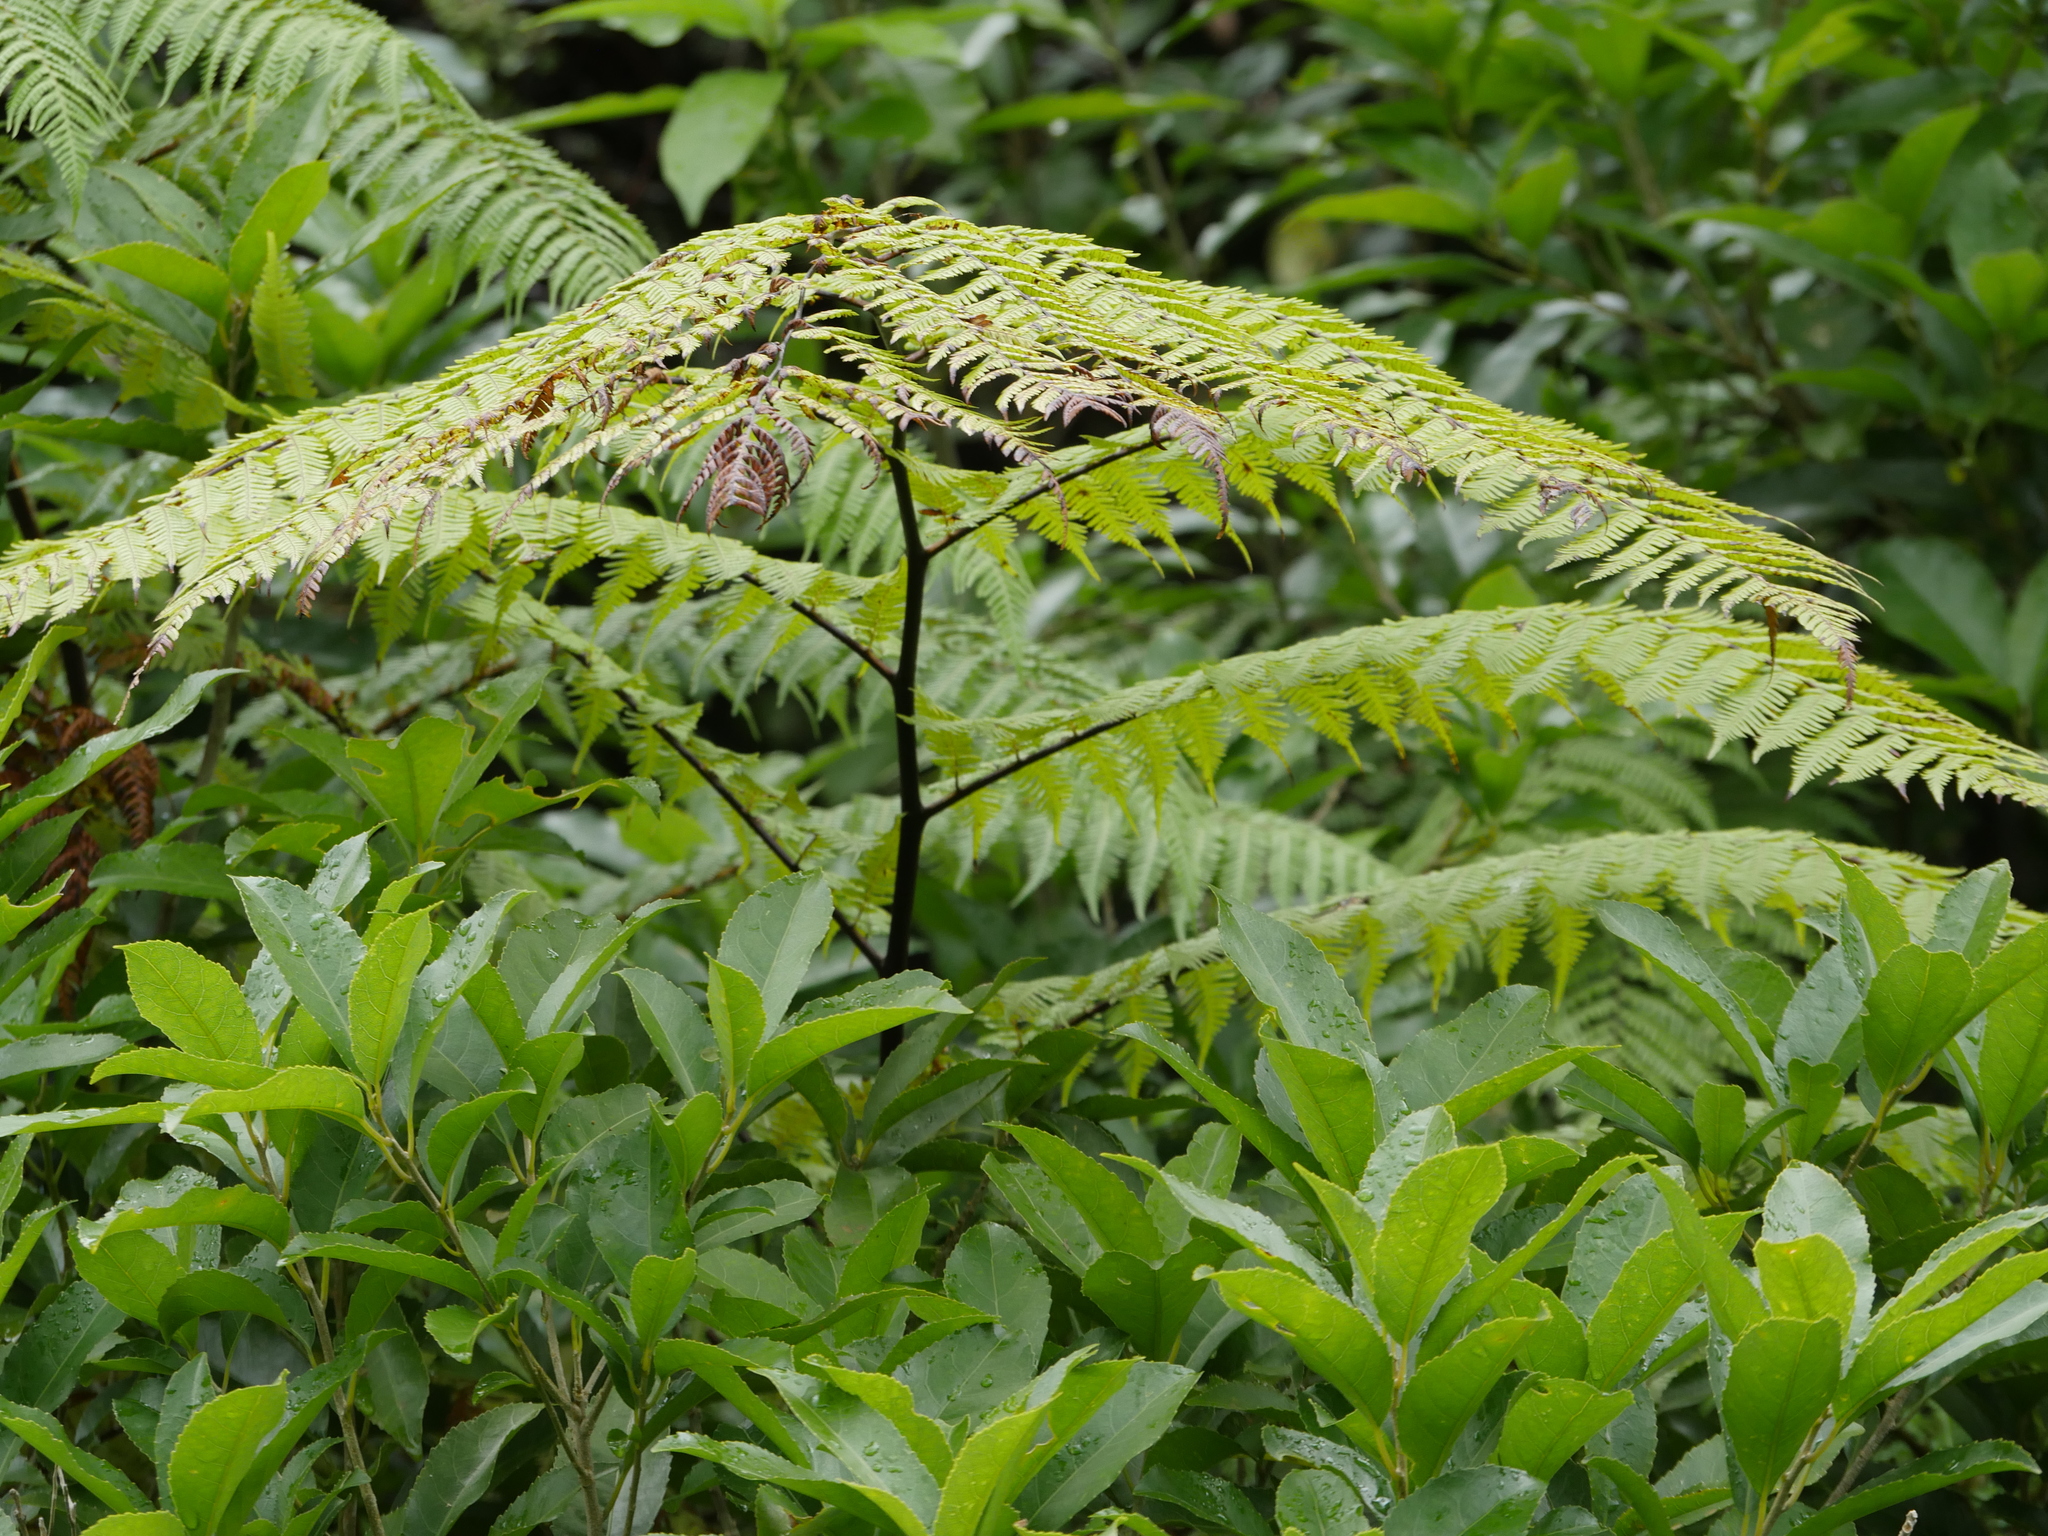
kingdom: Plantae
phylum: Tracheophyta
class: Polypodiopsida
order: Cyatheales
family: Cyatheaceae
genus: Sphaeropteris
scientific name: Sphaeropteris medullaris
